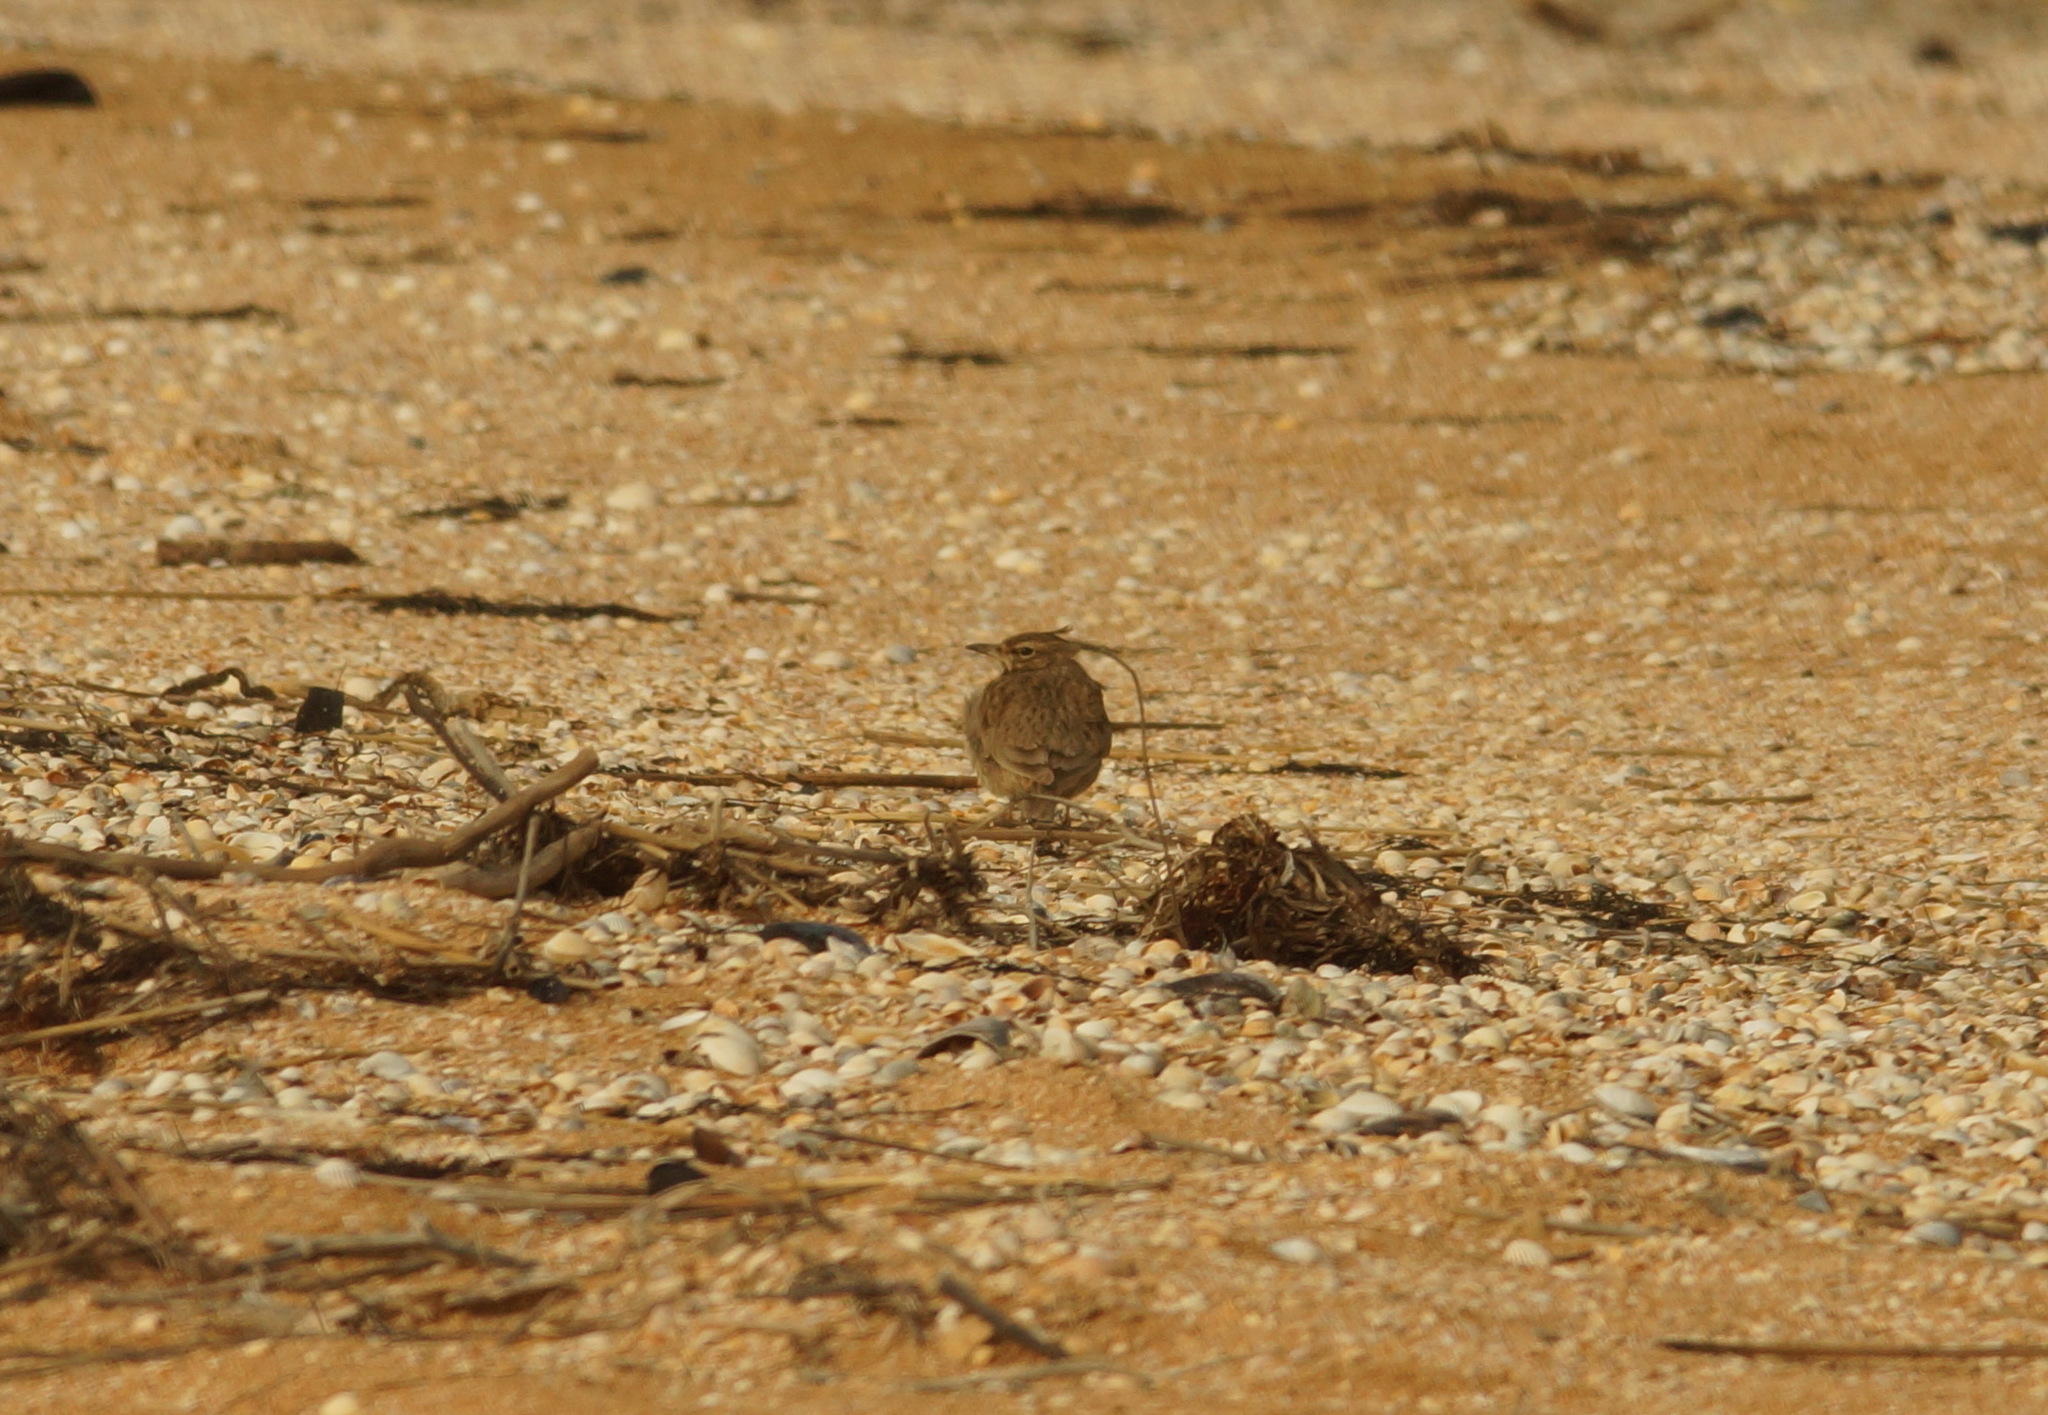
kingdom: Animalia
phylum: Chordata
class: Aves
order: Passeriformes
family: Alaudidae
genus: Galerida
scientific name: Galerida cristata
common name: Crested lark
